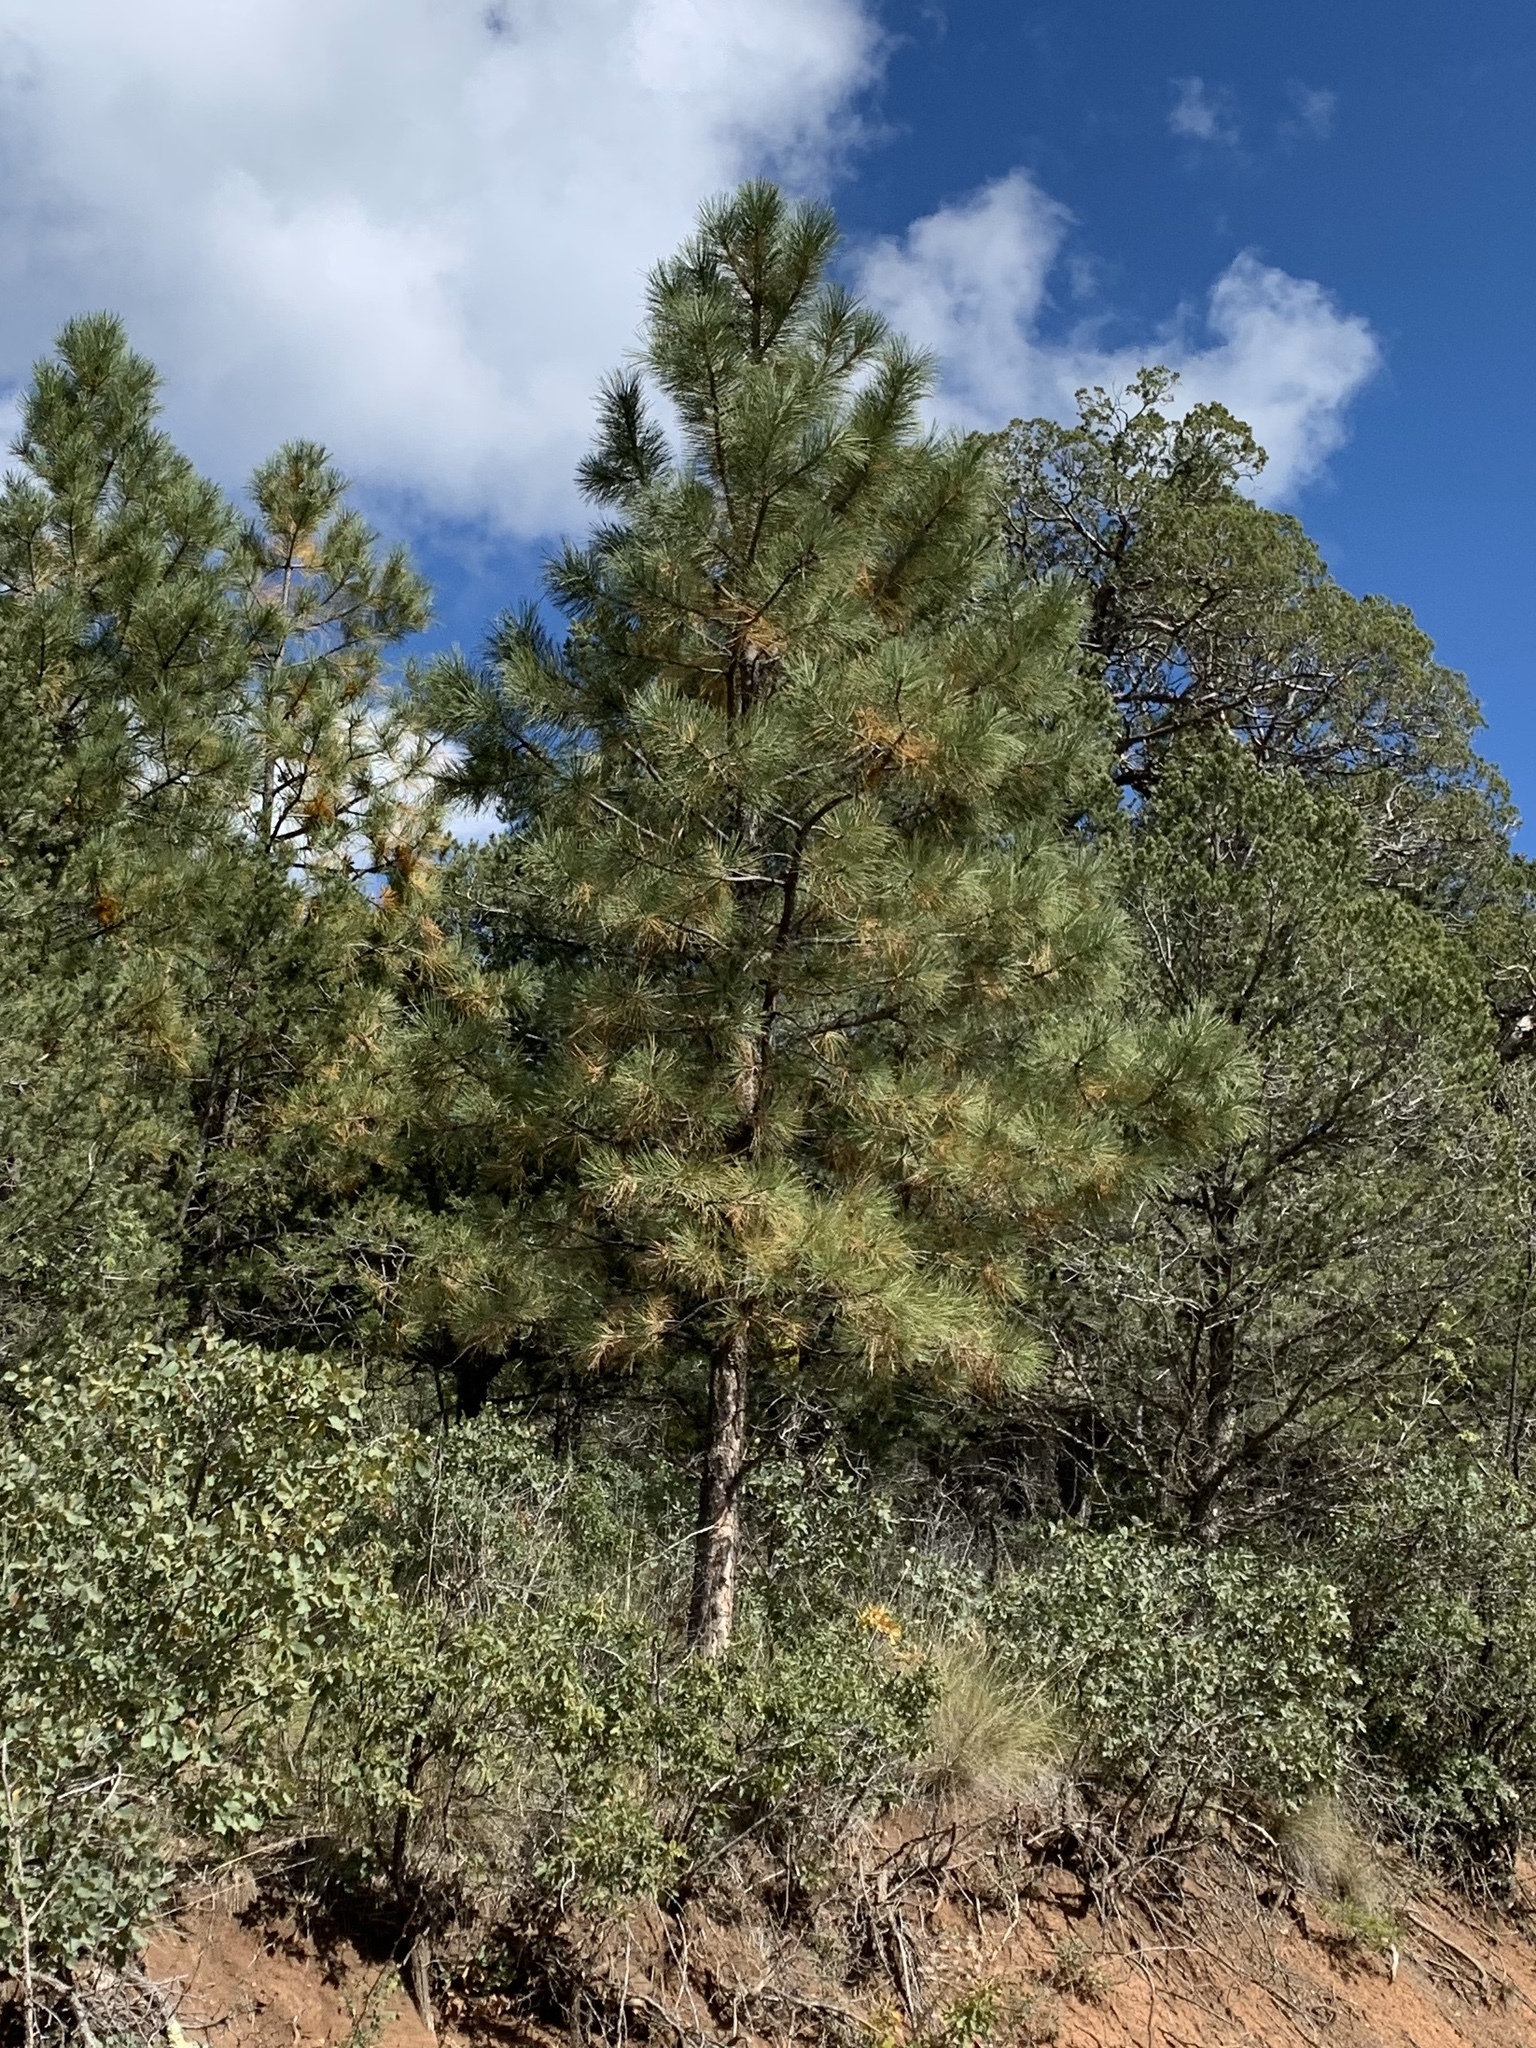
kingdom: Plantae
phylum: Tracheophyta
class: Pinopsida
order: Pinales
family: Pinaceae
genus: Pinus
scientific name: Pinus ponderosa
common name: Western yellow-pine
